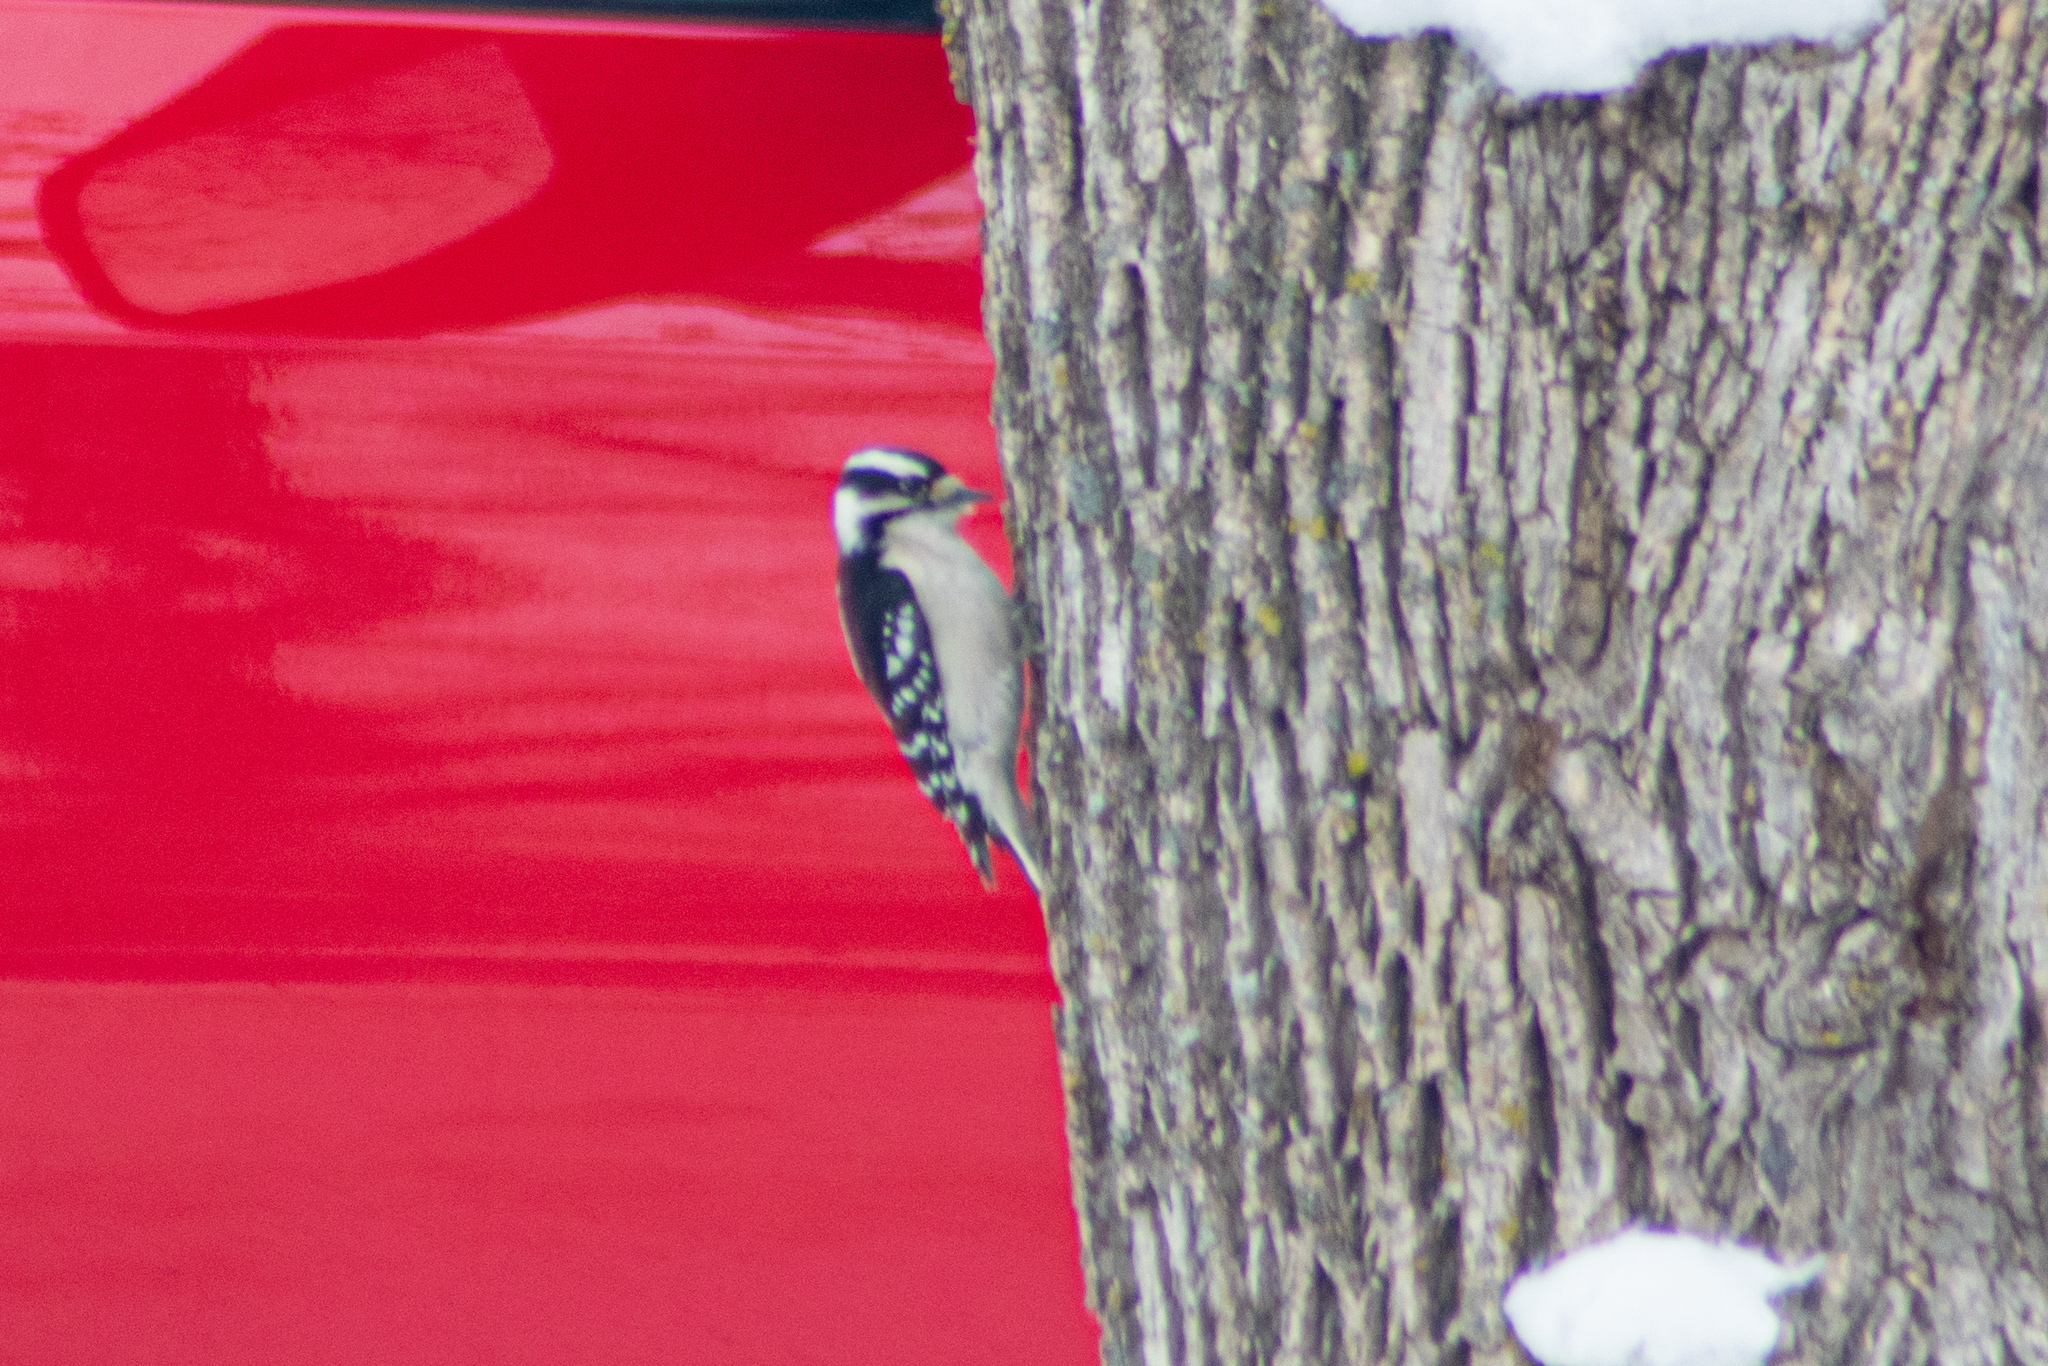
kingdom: Animalia
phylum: Chordata
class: Aves
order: Piciformes
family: Picidae
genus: Dryobates
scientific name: Dryobates pubescens
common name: Downy woodpecker
